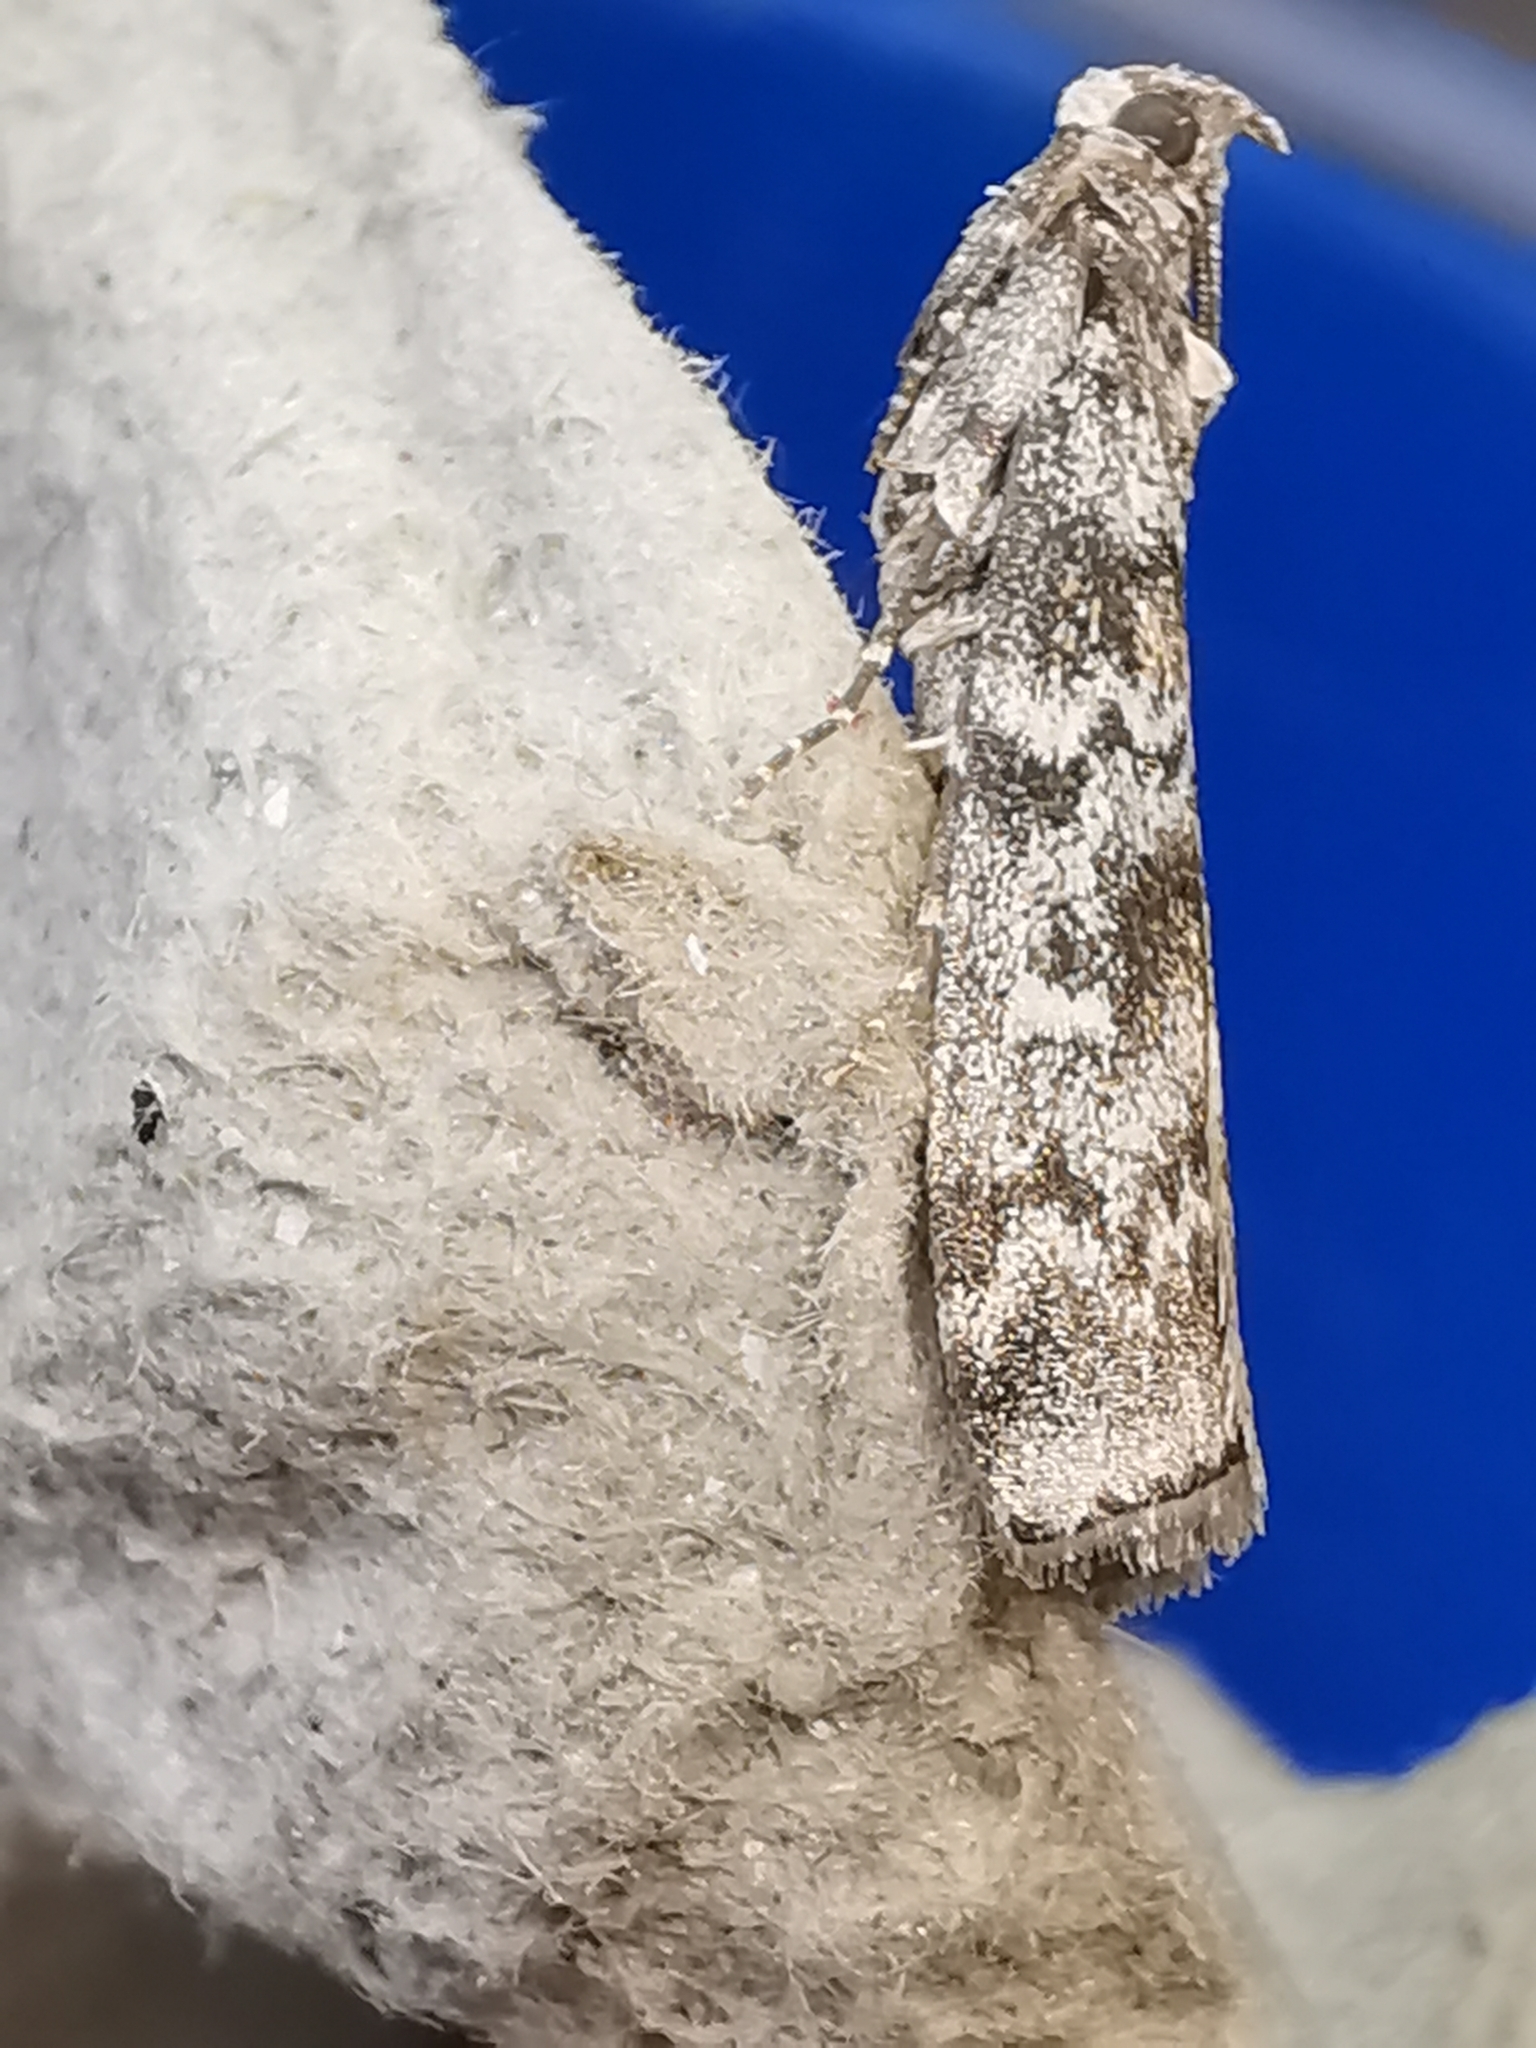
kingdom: Animalia
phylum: Arthropoda
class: Insecta
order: Lepidoptera
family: Pyralidae
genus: Dioryctria
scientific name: Dioryctria abietella
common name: Dark pine knot-horn
